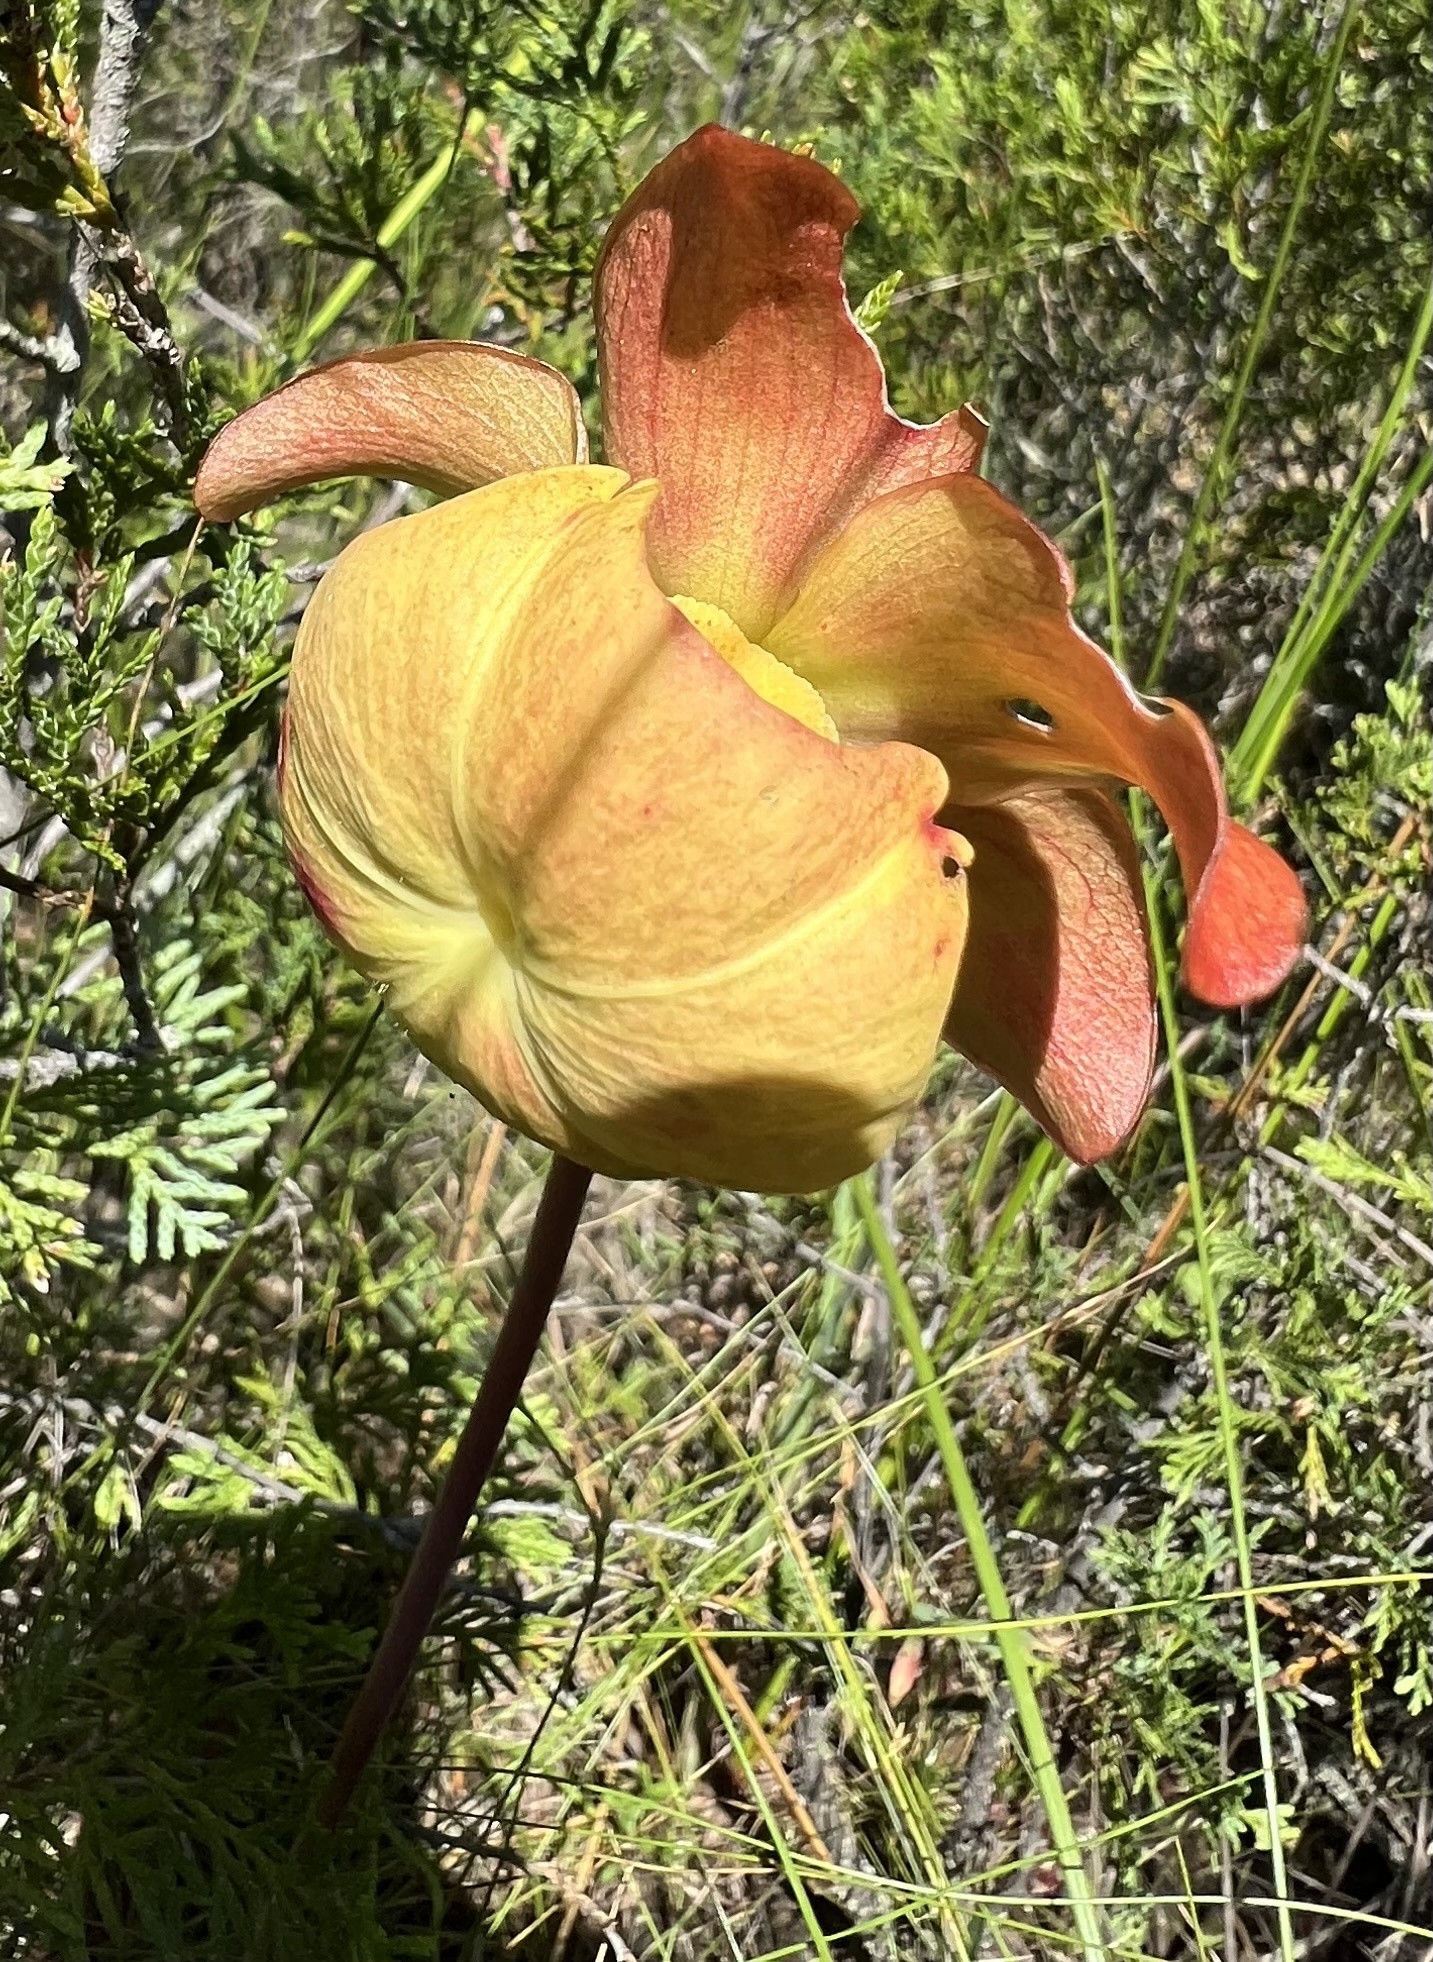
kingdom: Plantae
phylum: Tracheophyta
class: Magnoliopsida
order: Ericales
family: Sarraceniaceae
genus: Sarracenia
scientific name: Sarracenia purpurea
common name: Pitcherplant
